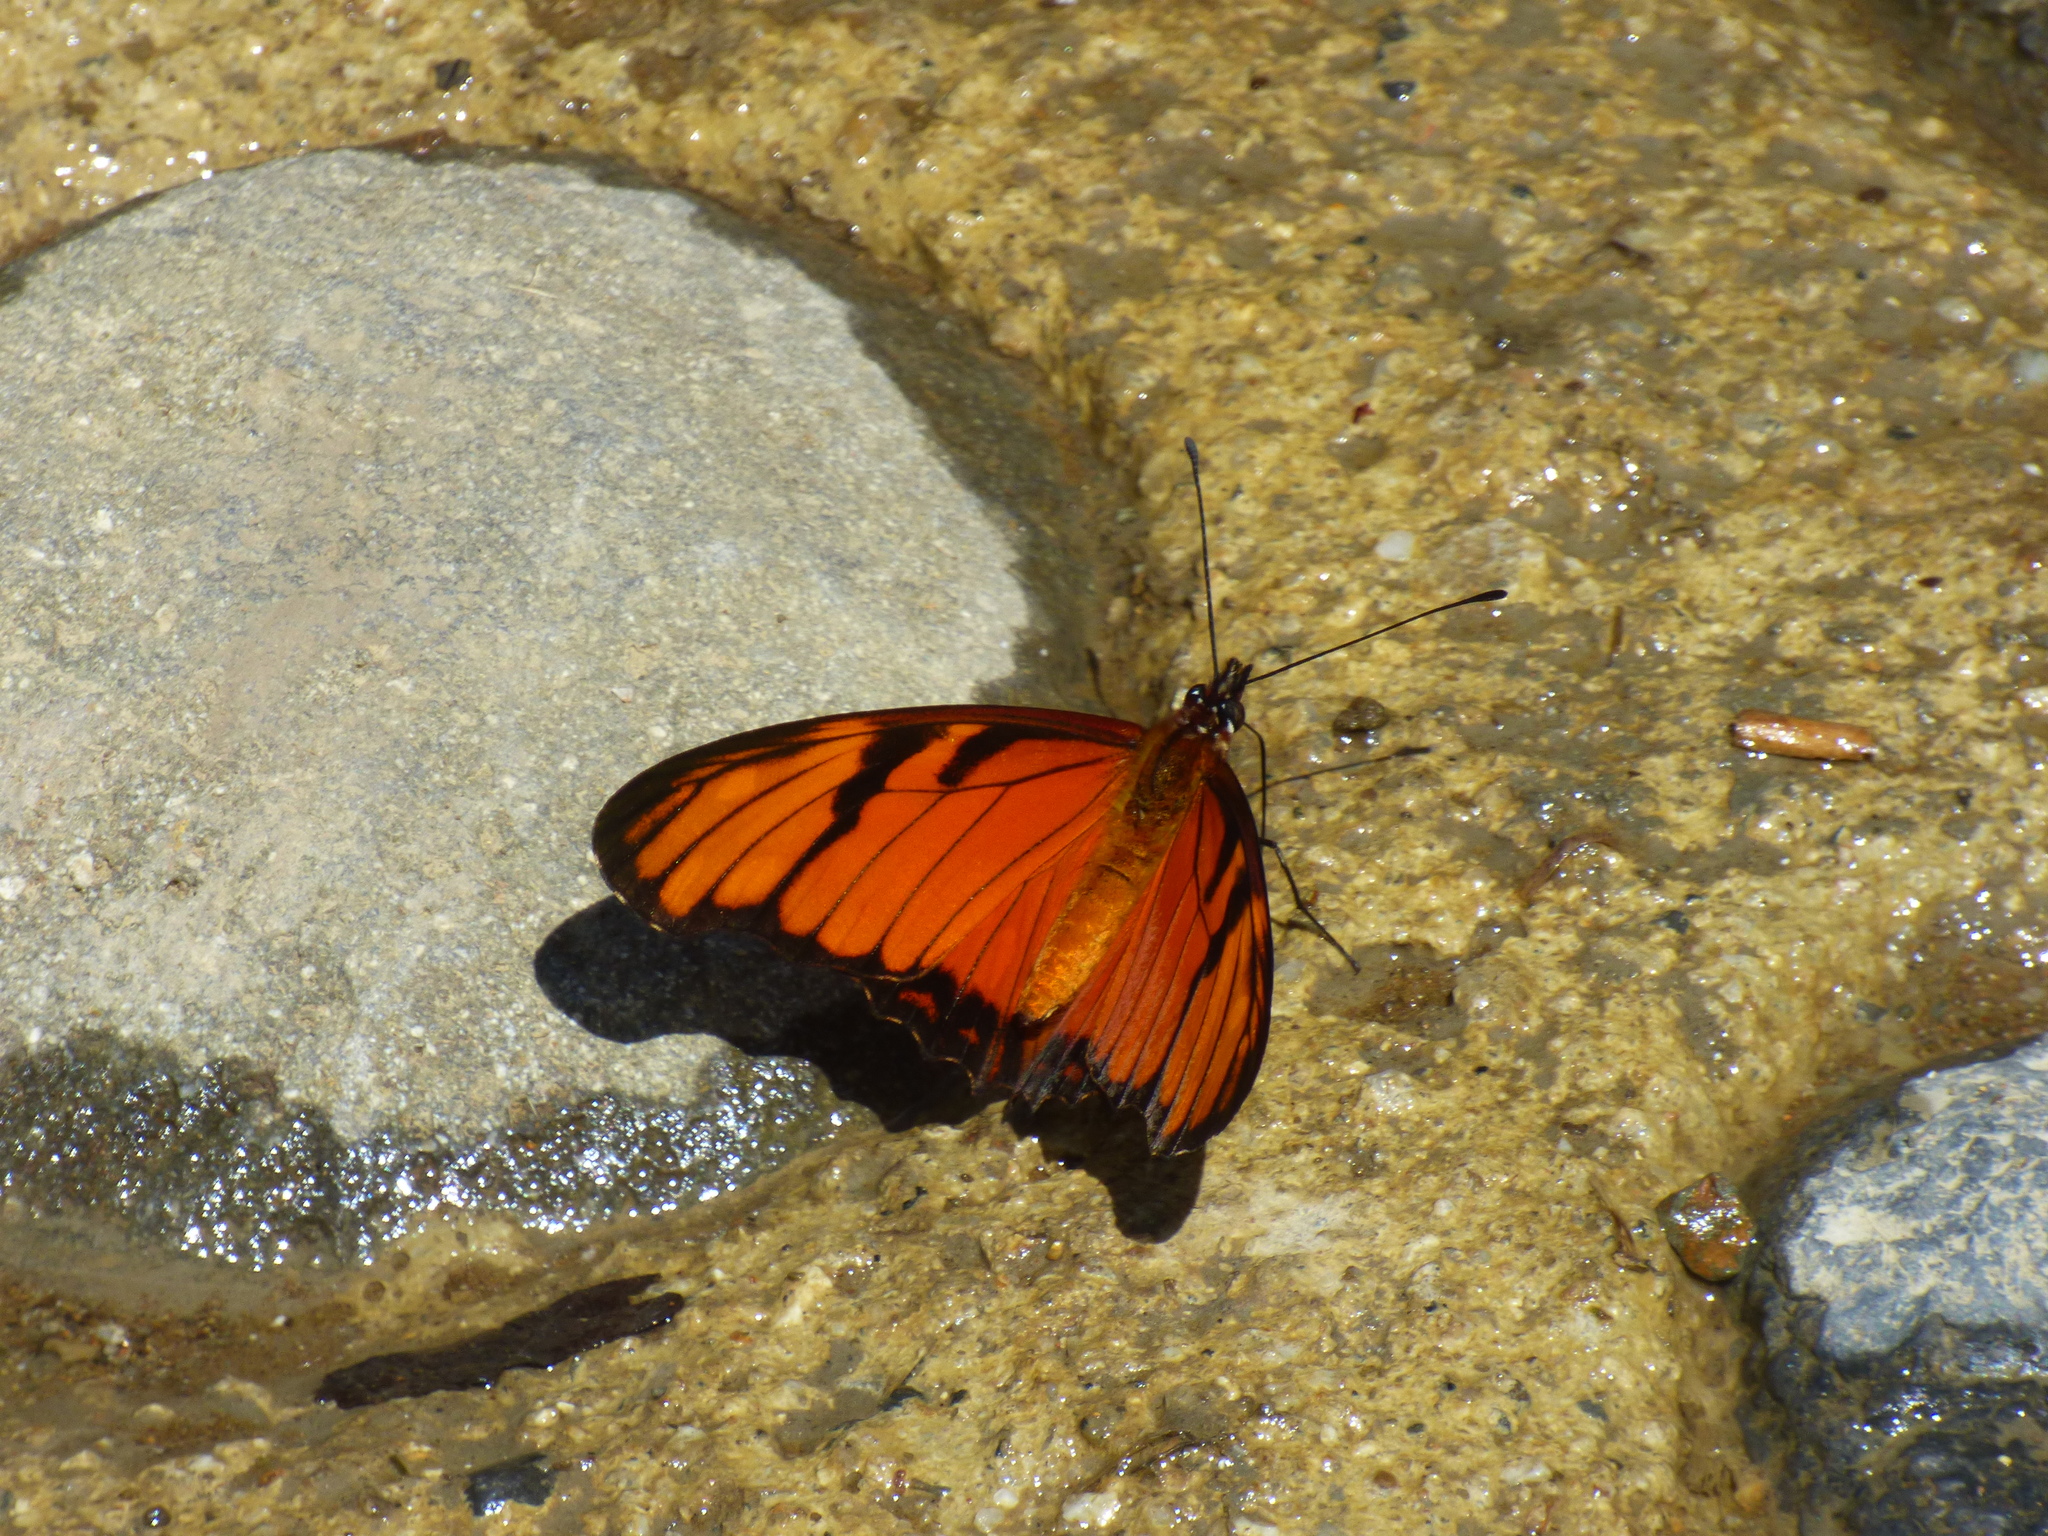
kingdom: Animalia
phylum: Arthropoda
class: Insecta
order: Lepidoptera
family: Nymphalidae
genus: Dione
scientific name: Dione juno
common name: Juno silverspot
